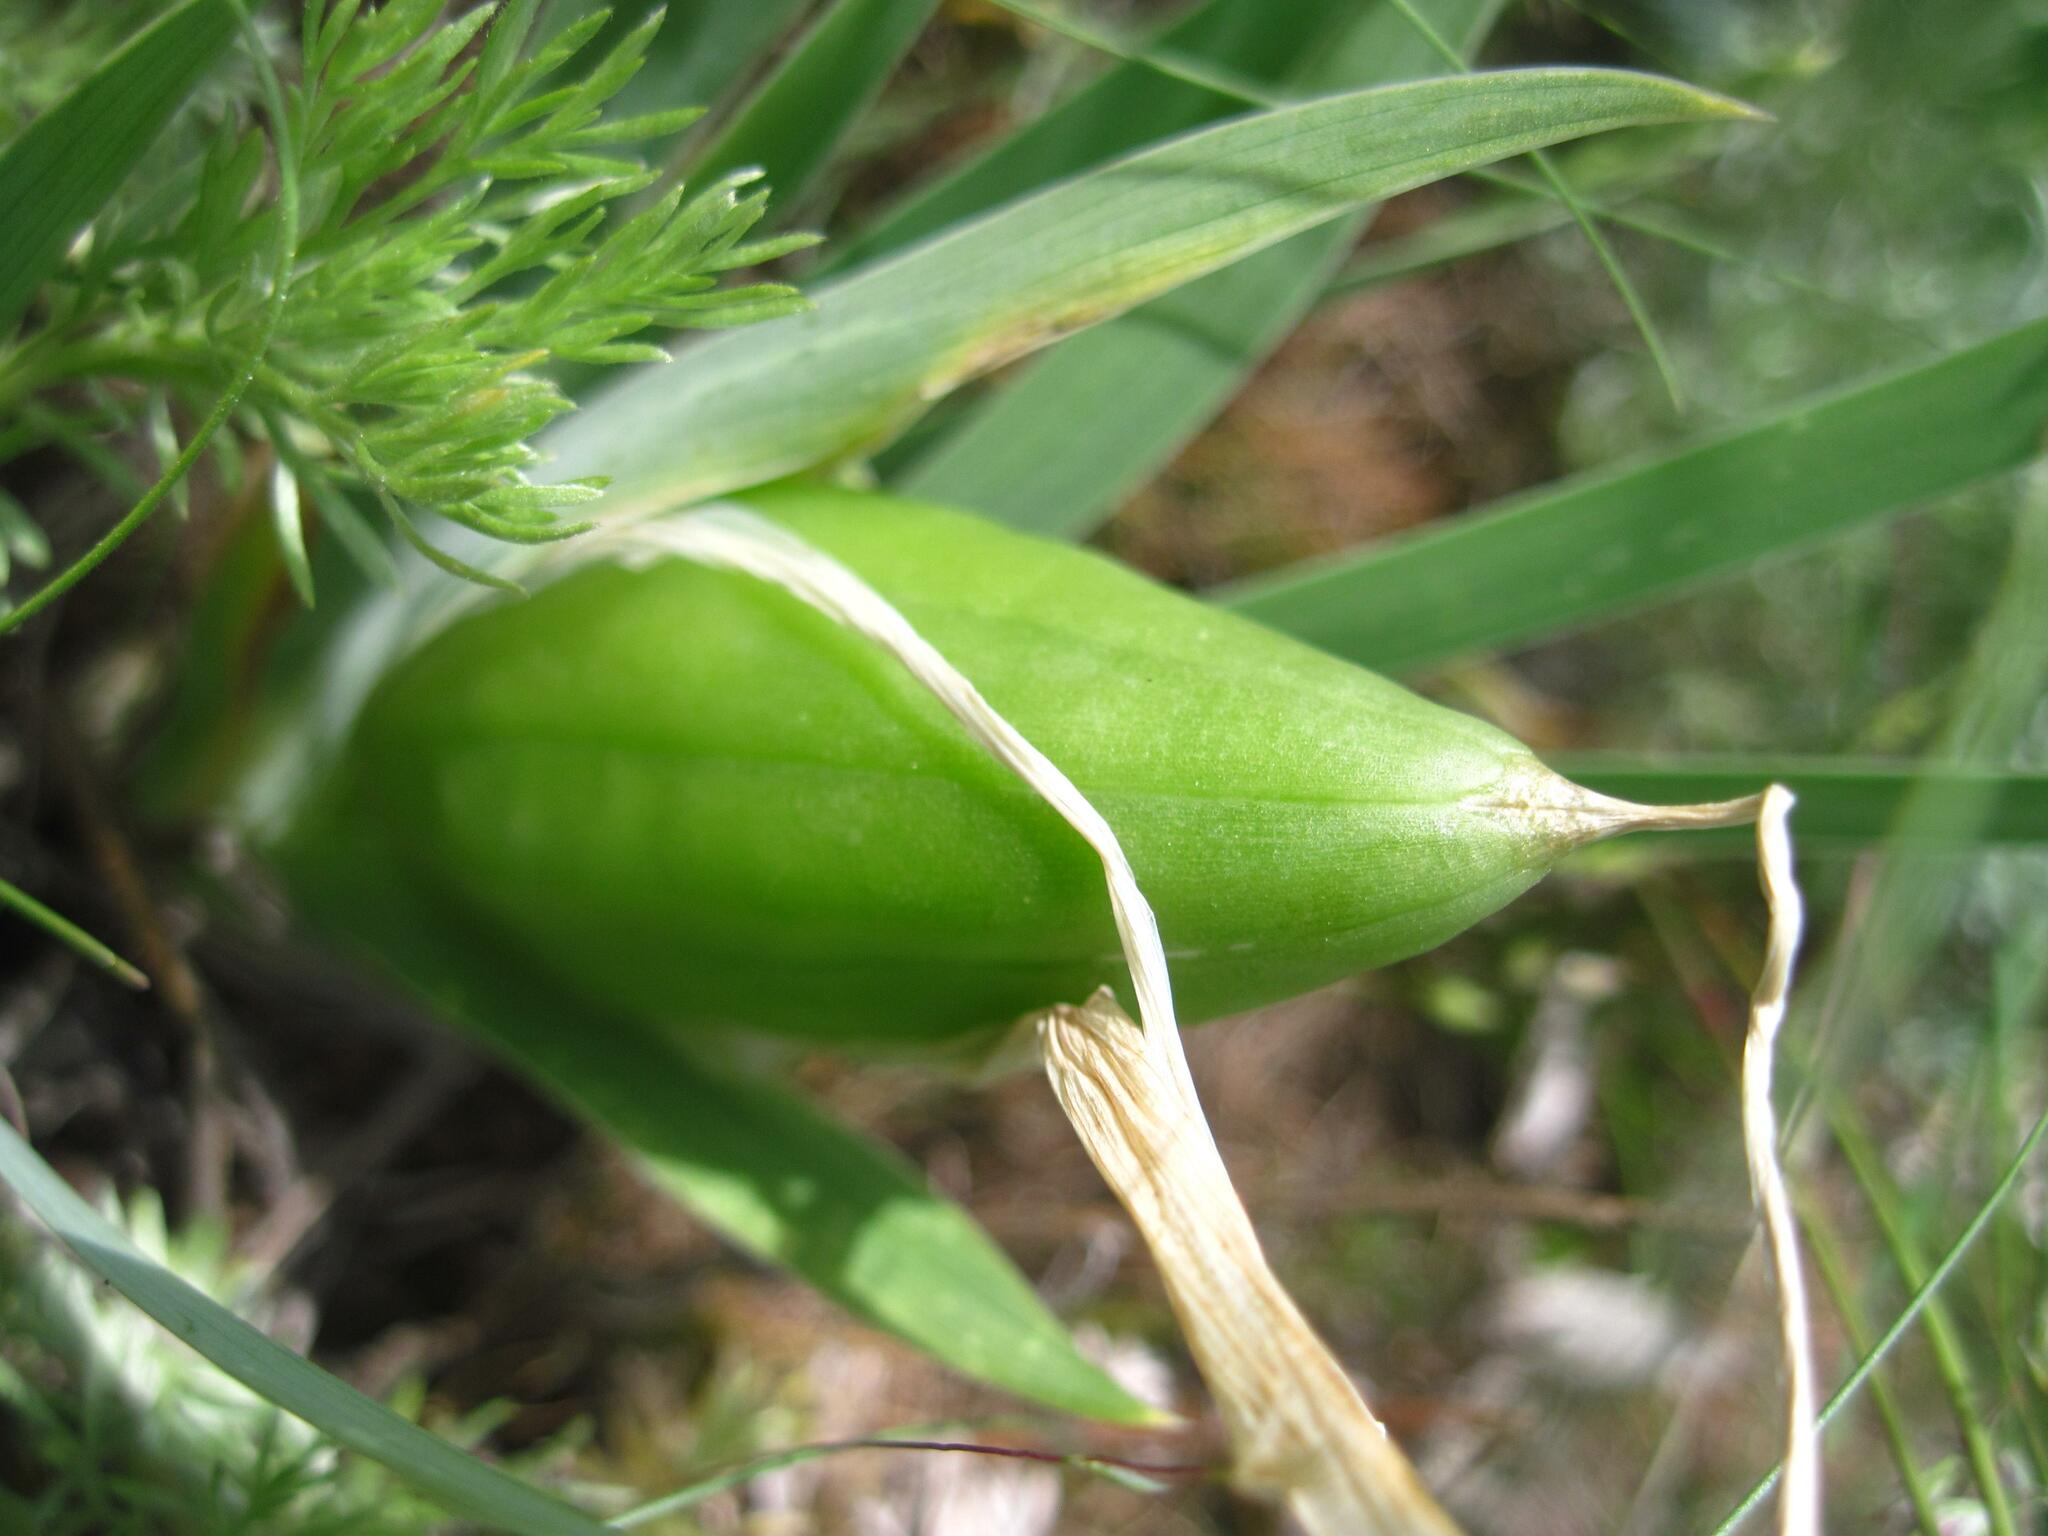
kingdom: Plantae
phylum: Tracheophyta
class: Liliopsida
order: Asparagales
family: Iridaceae
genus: Iris
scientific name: Iris pumila
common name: Dwarf iris
